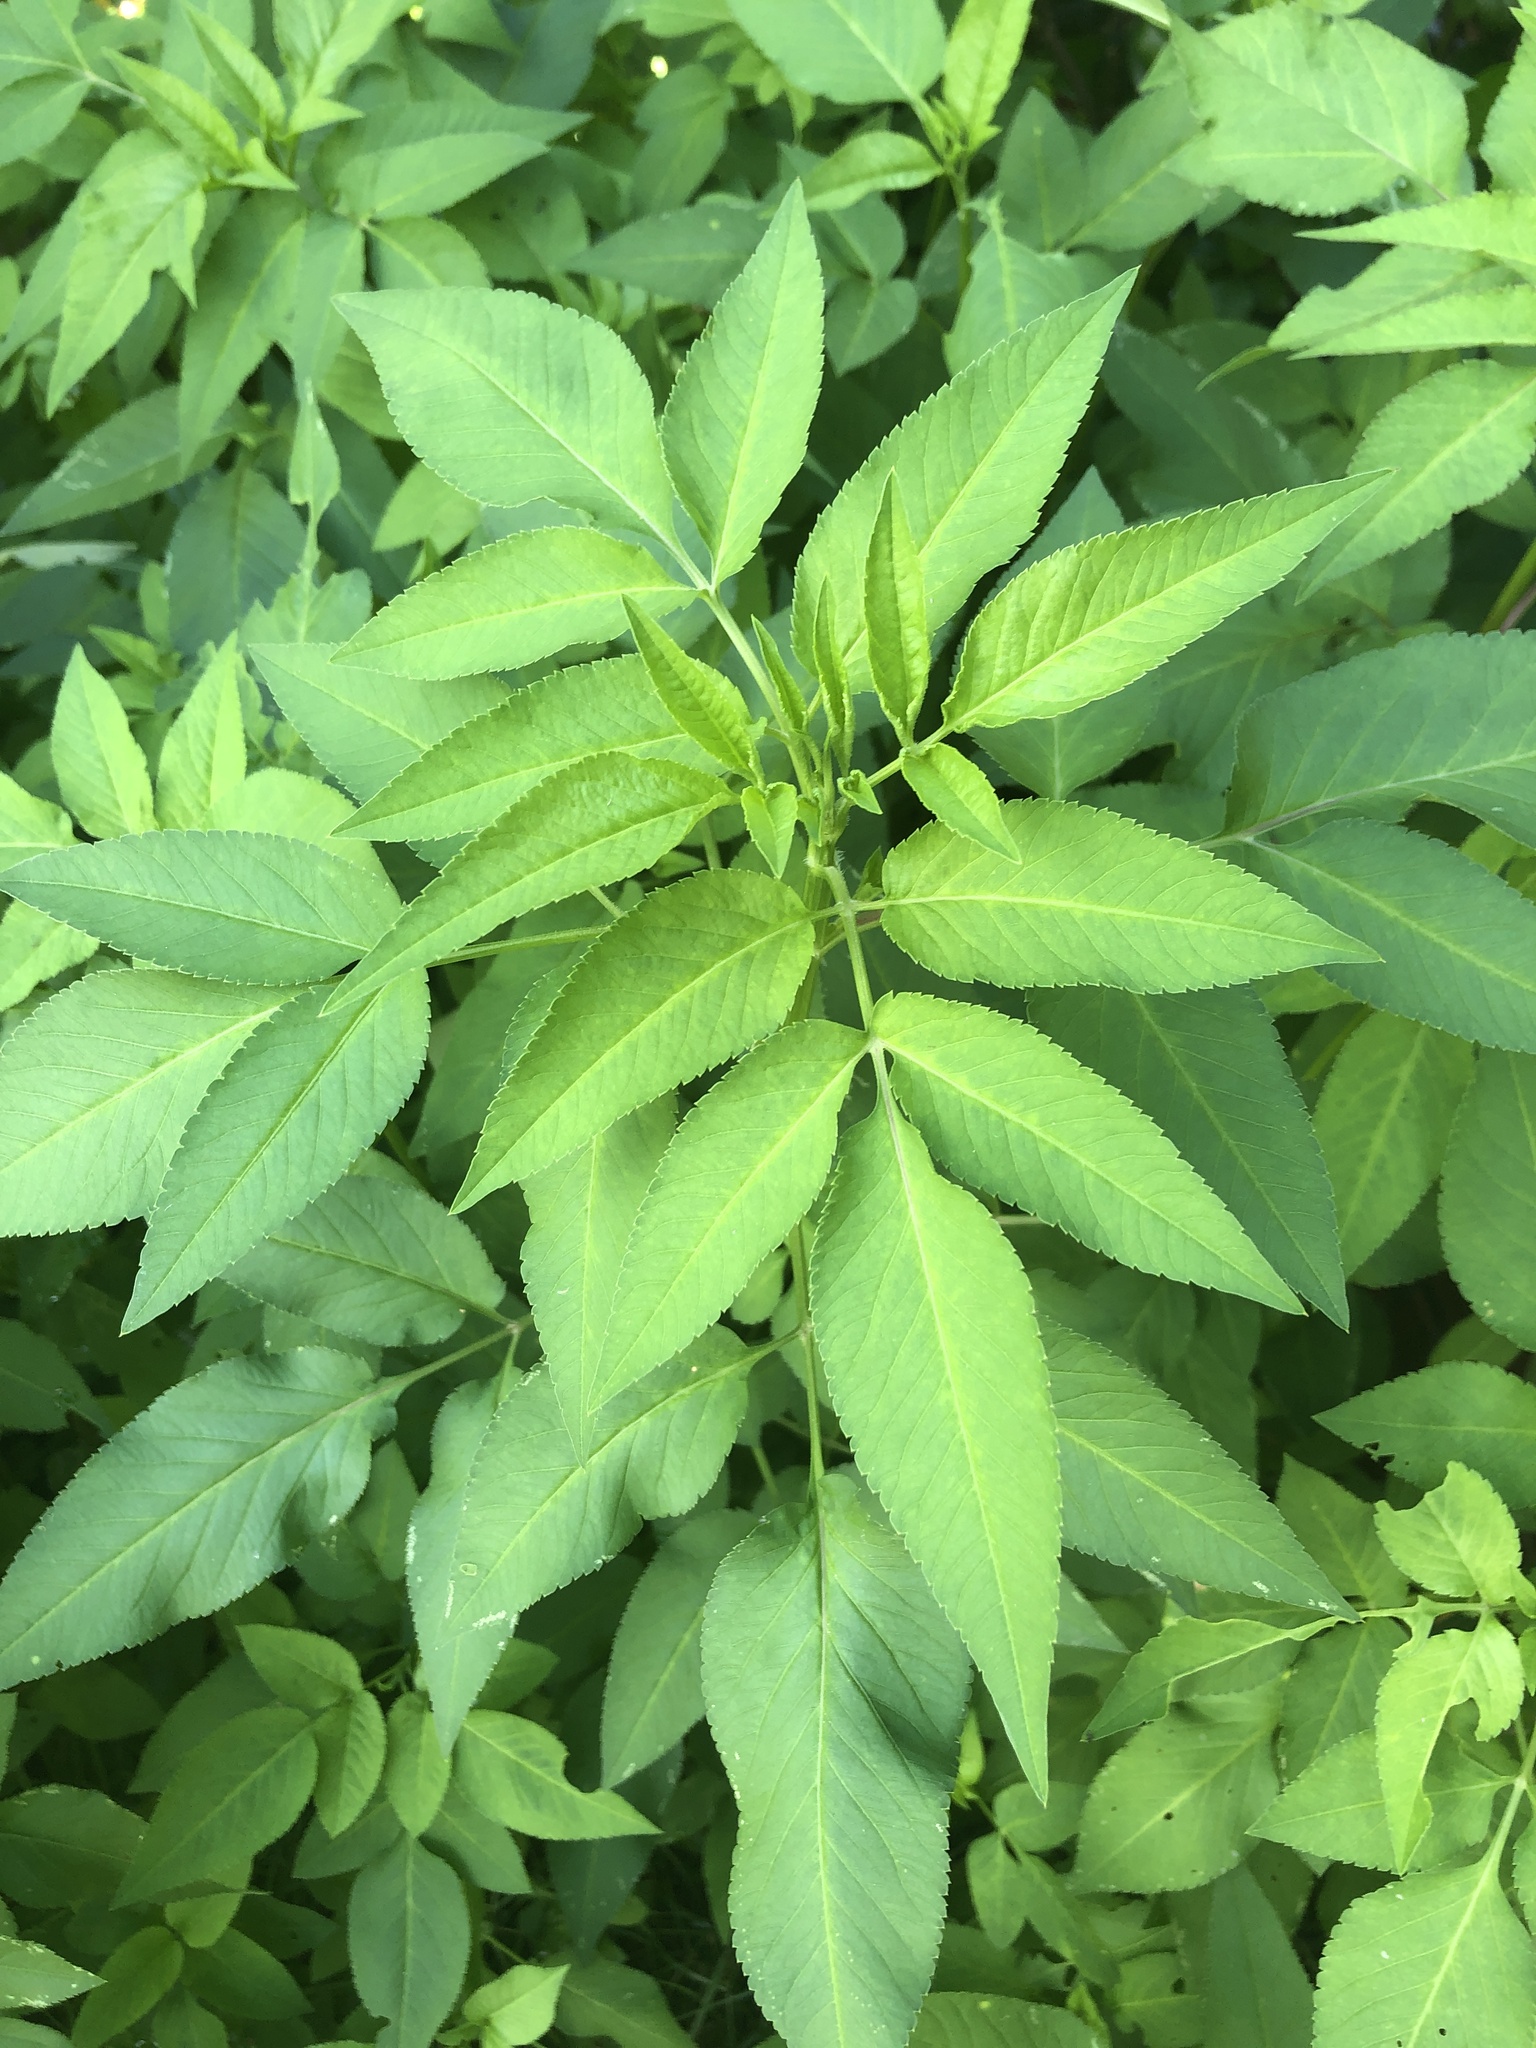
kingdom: Plantae
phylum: Tracheophyta
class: Magnoliopsida
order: Asterales
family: Asteraceae
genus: Bidens
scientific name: Bidens alba
